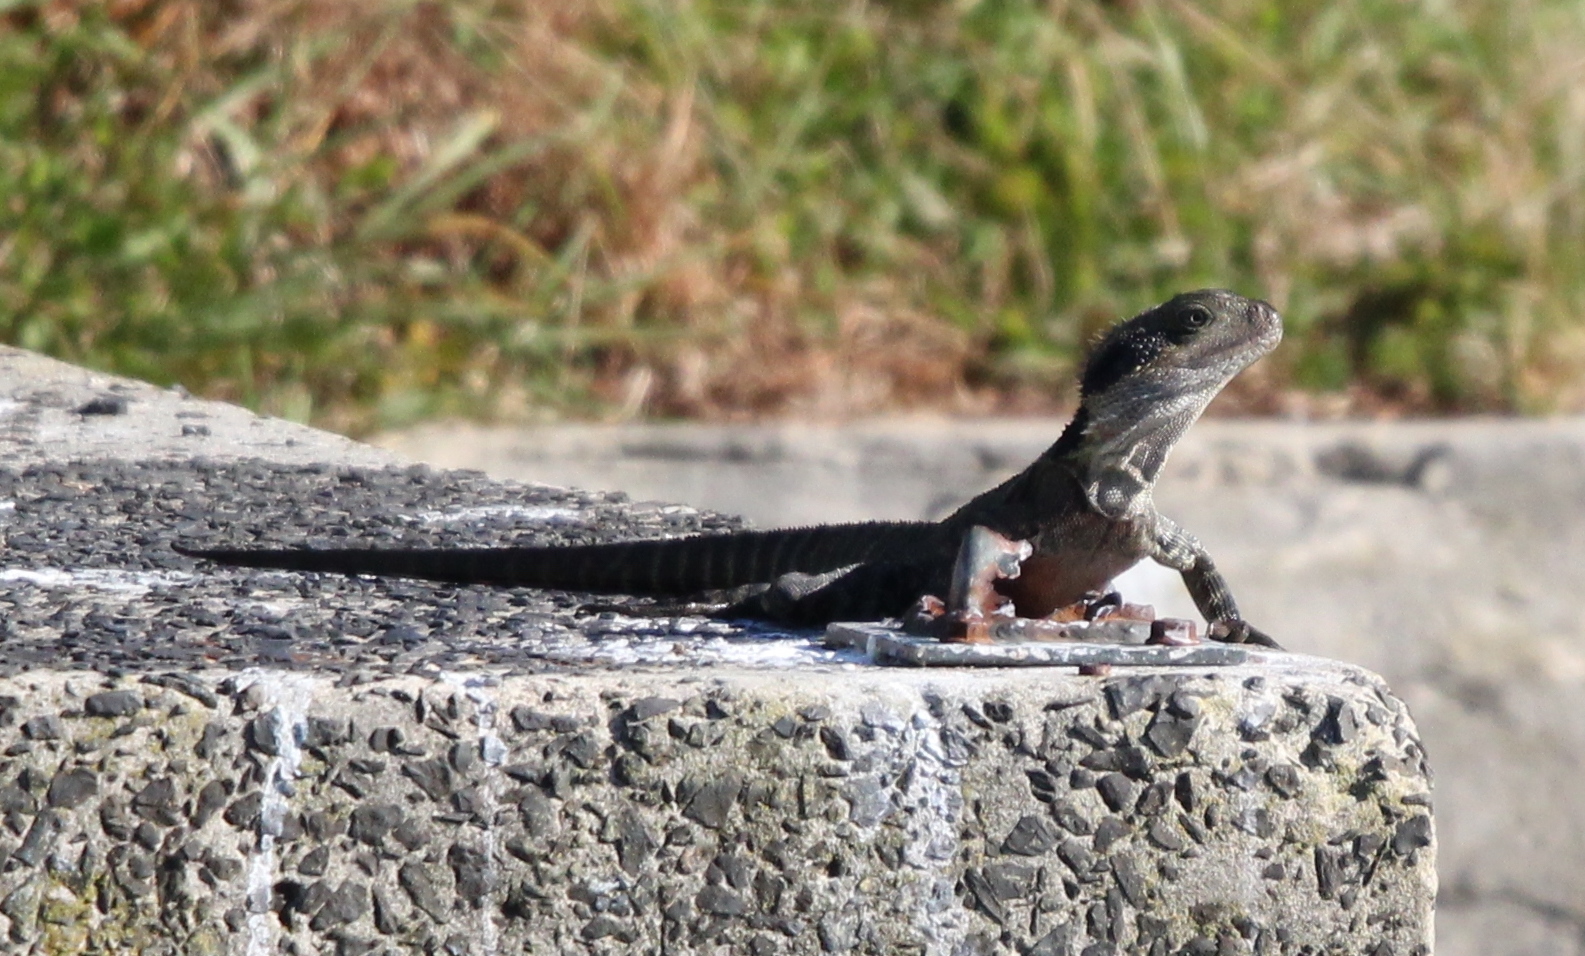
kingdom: Animalia
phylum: Chordata
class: Squamata
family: Agamidae
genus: Intellagama
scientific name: Intellagama lesueurii
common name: Eastern water dragon
